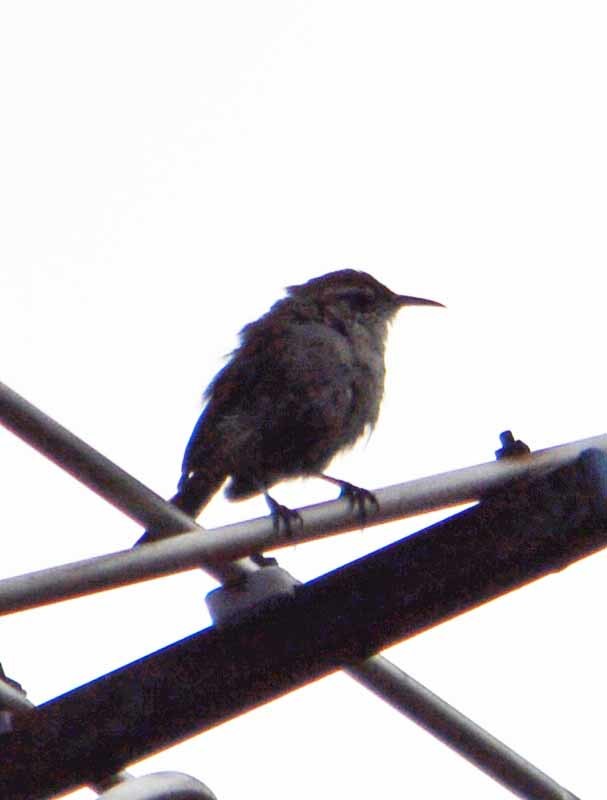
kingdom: Animalia
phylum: Chordata
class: Aves
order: Passeriformes
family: Troglodytidae
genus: Thryomanes
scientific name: Thryomanes bewickii
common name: Bewick's wren
